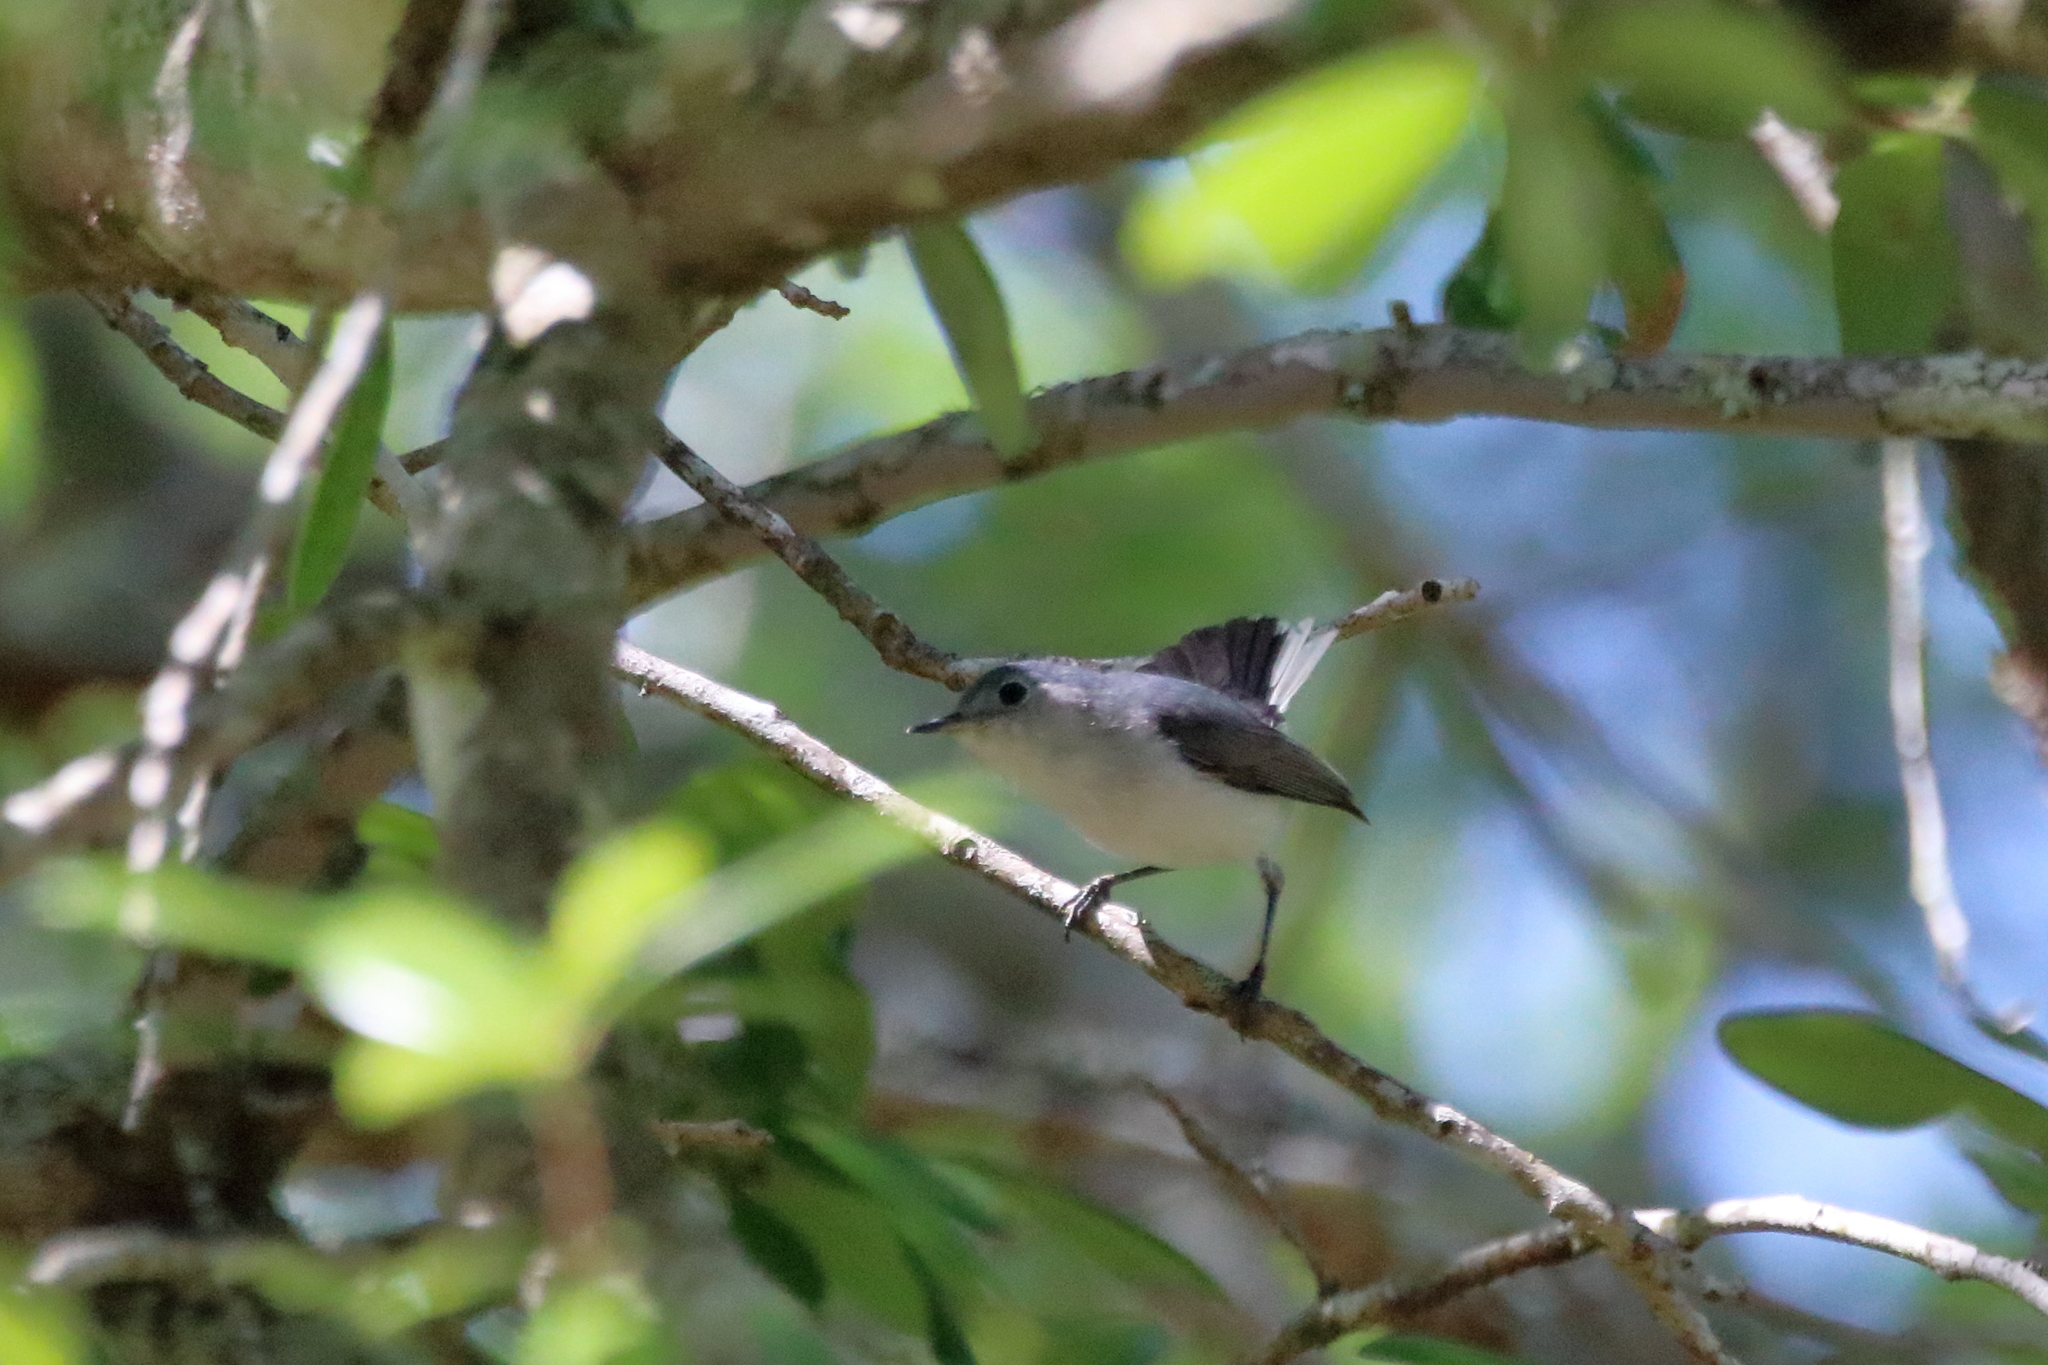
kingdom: Animalia
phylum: Chordata
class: Aves
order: Passeriformes
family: Polioptilidae
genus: Polioptila
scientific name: Polioptila caerulea
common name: Blue-gray gnatcatcher
